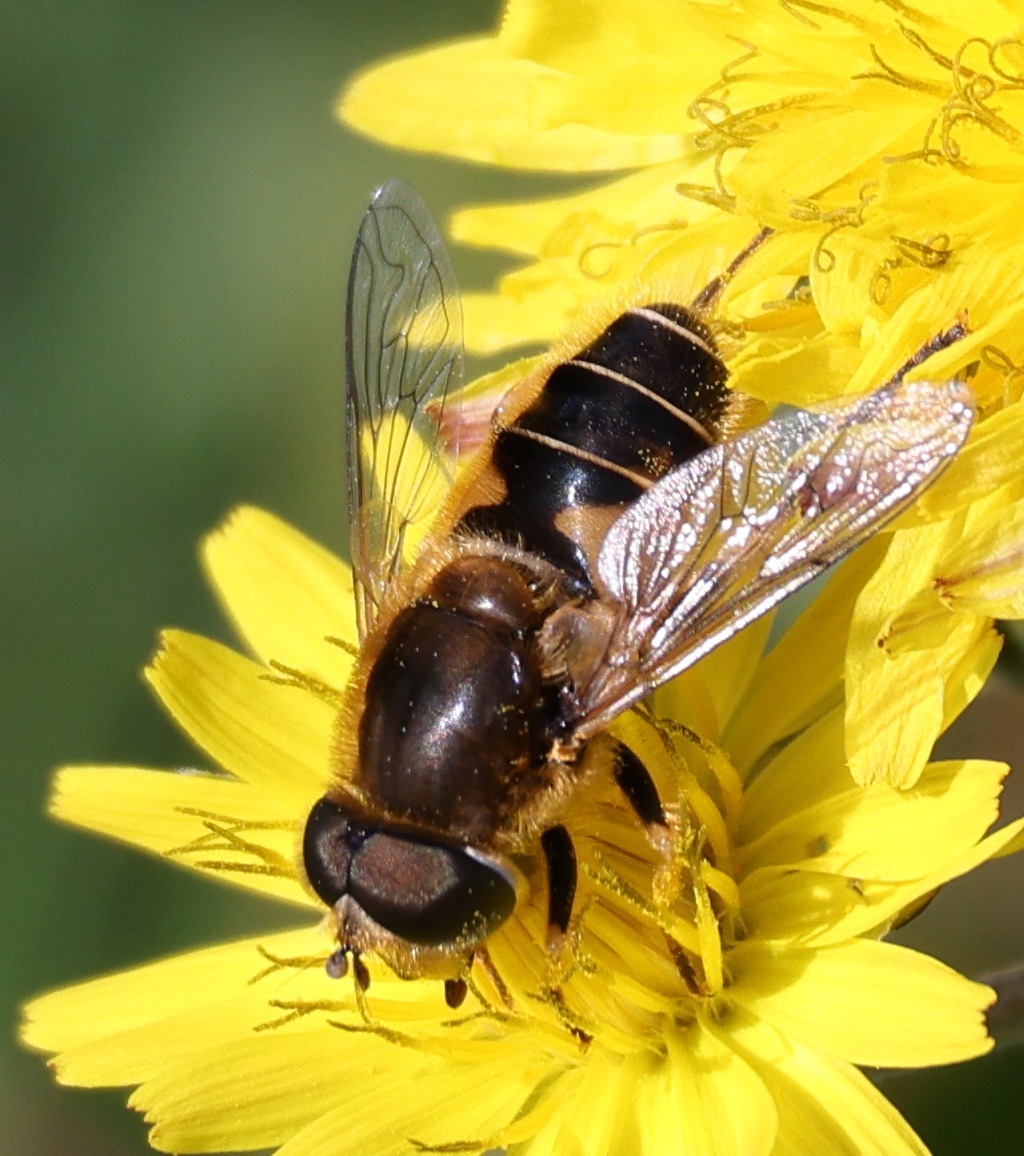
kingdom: Animalia
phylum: Arthropoda
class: Insecta
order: Diptera
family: Syrphidae
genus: Eristalis
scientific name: Eristalis nemorum
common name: Orange-spined drone fly
